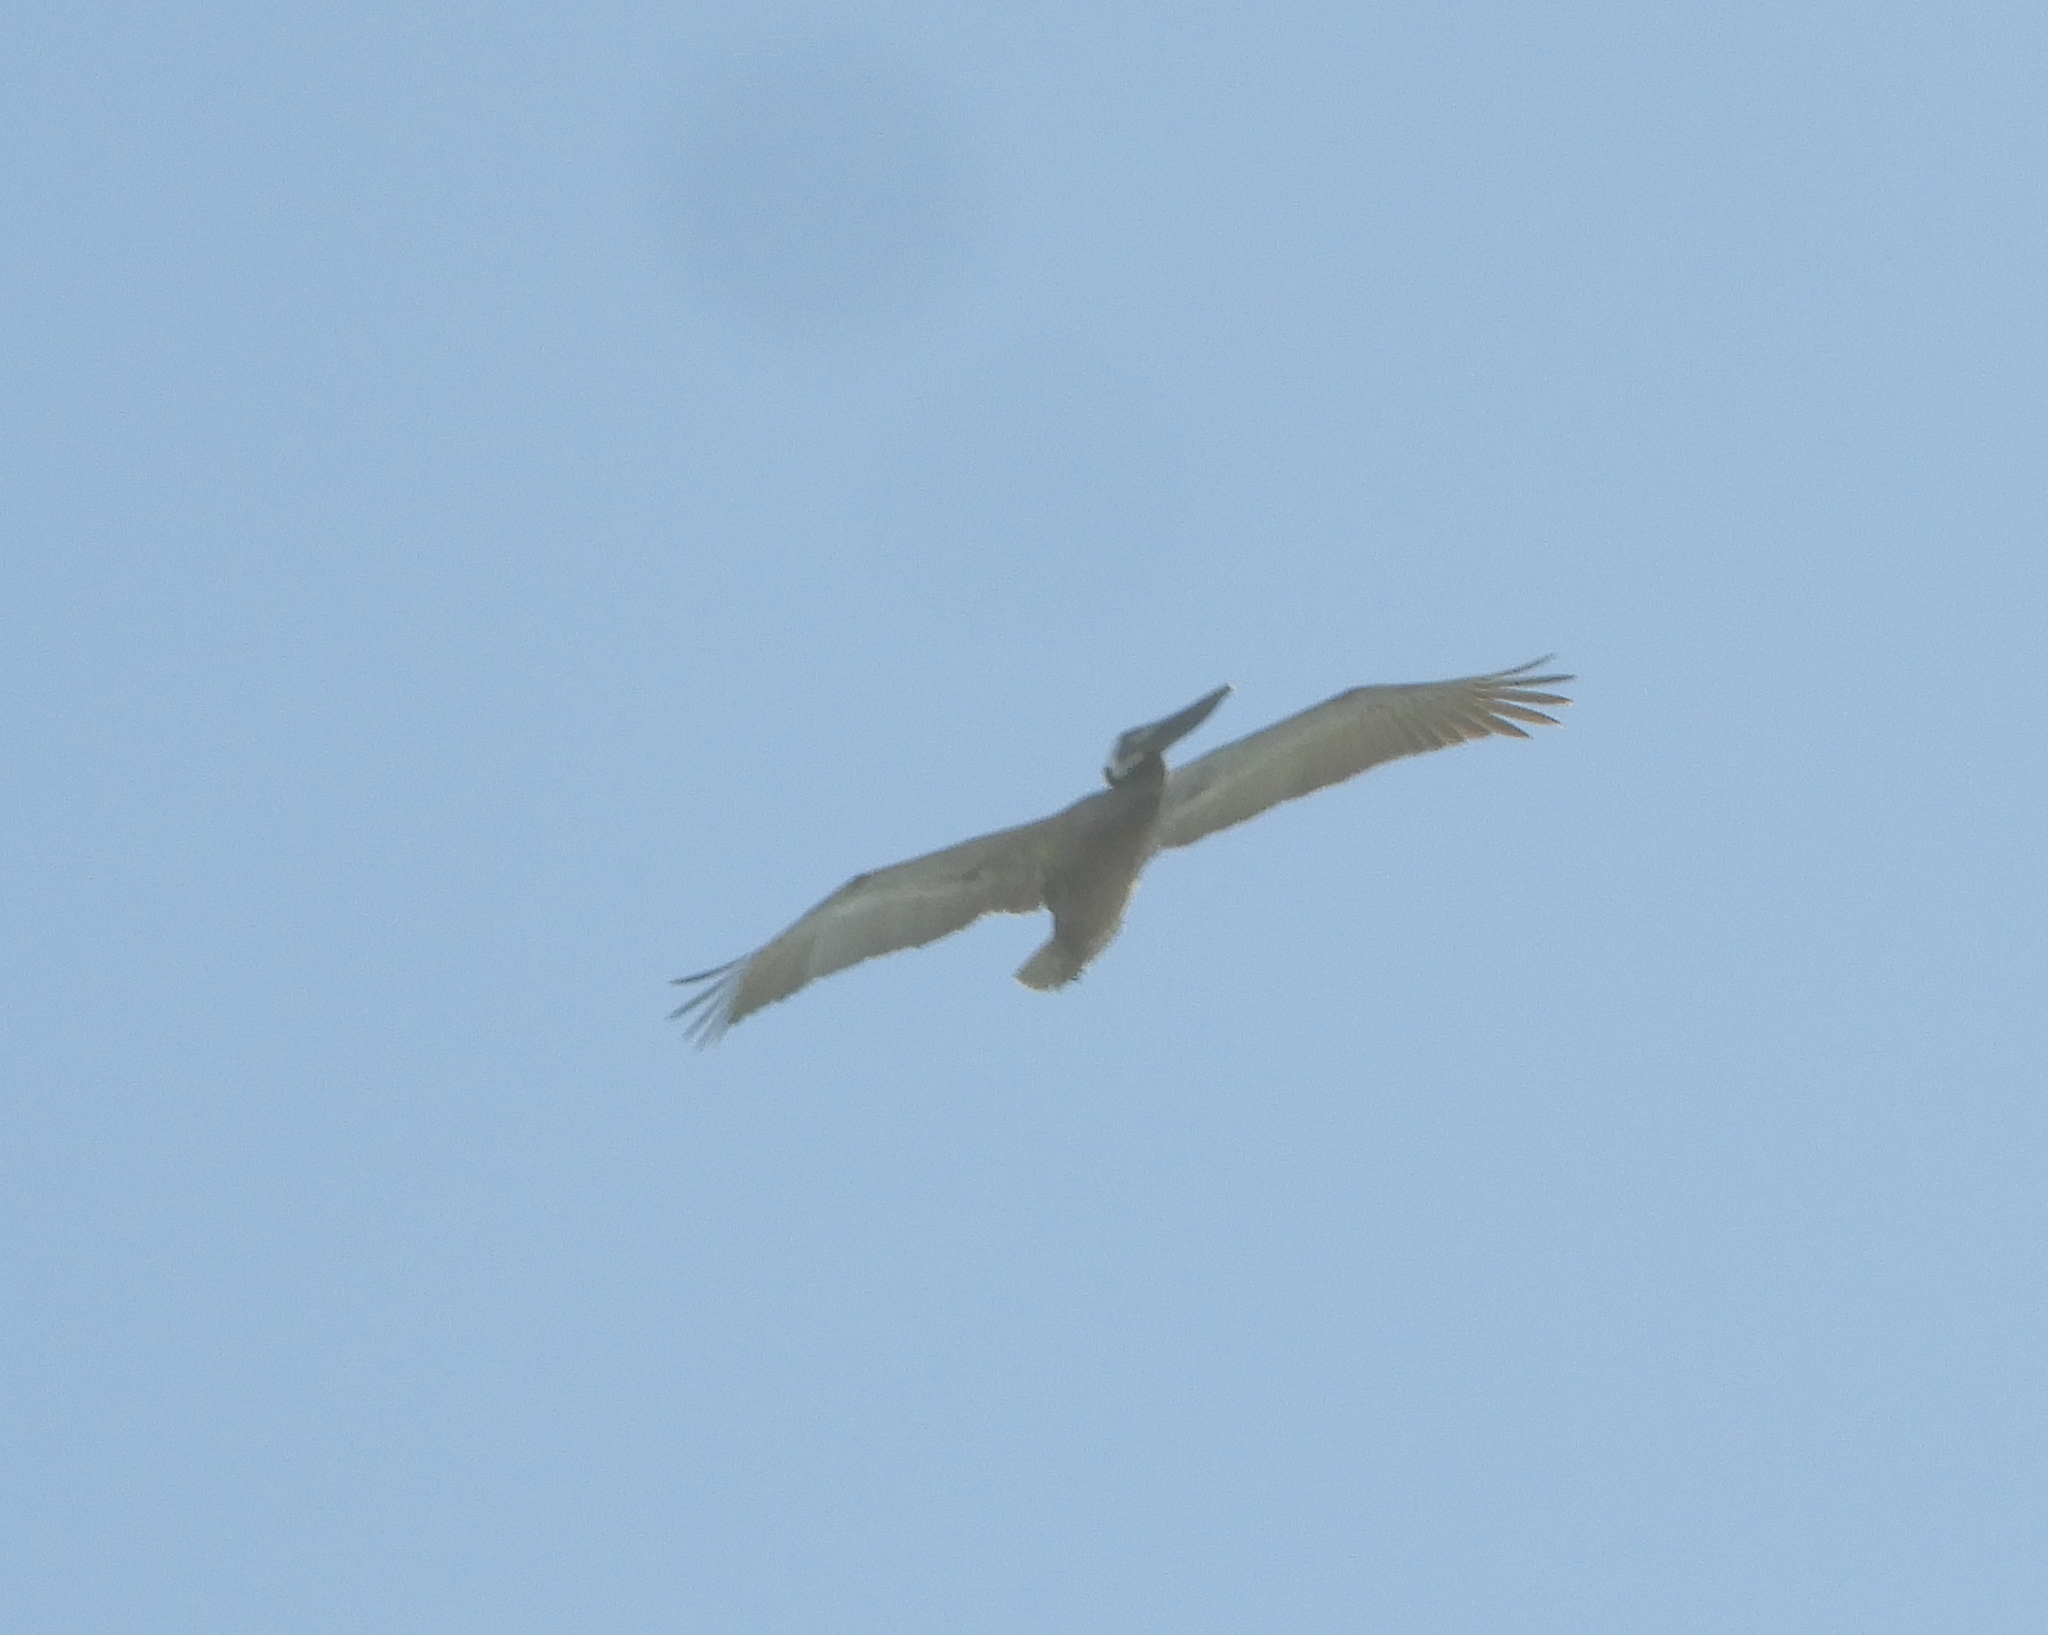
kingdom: Animalia
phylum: Chordata
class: Aves
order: Pelecaniformes
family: Pelecanidae
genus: Pelecanus
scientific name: Pelecanus occidentalis
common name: Brown pelican
